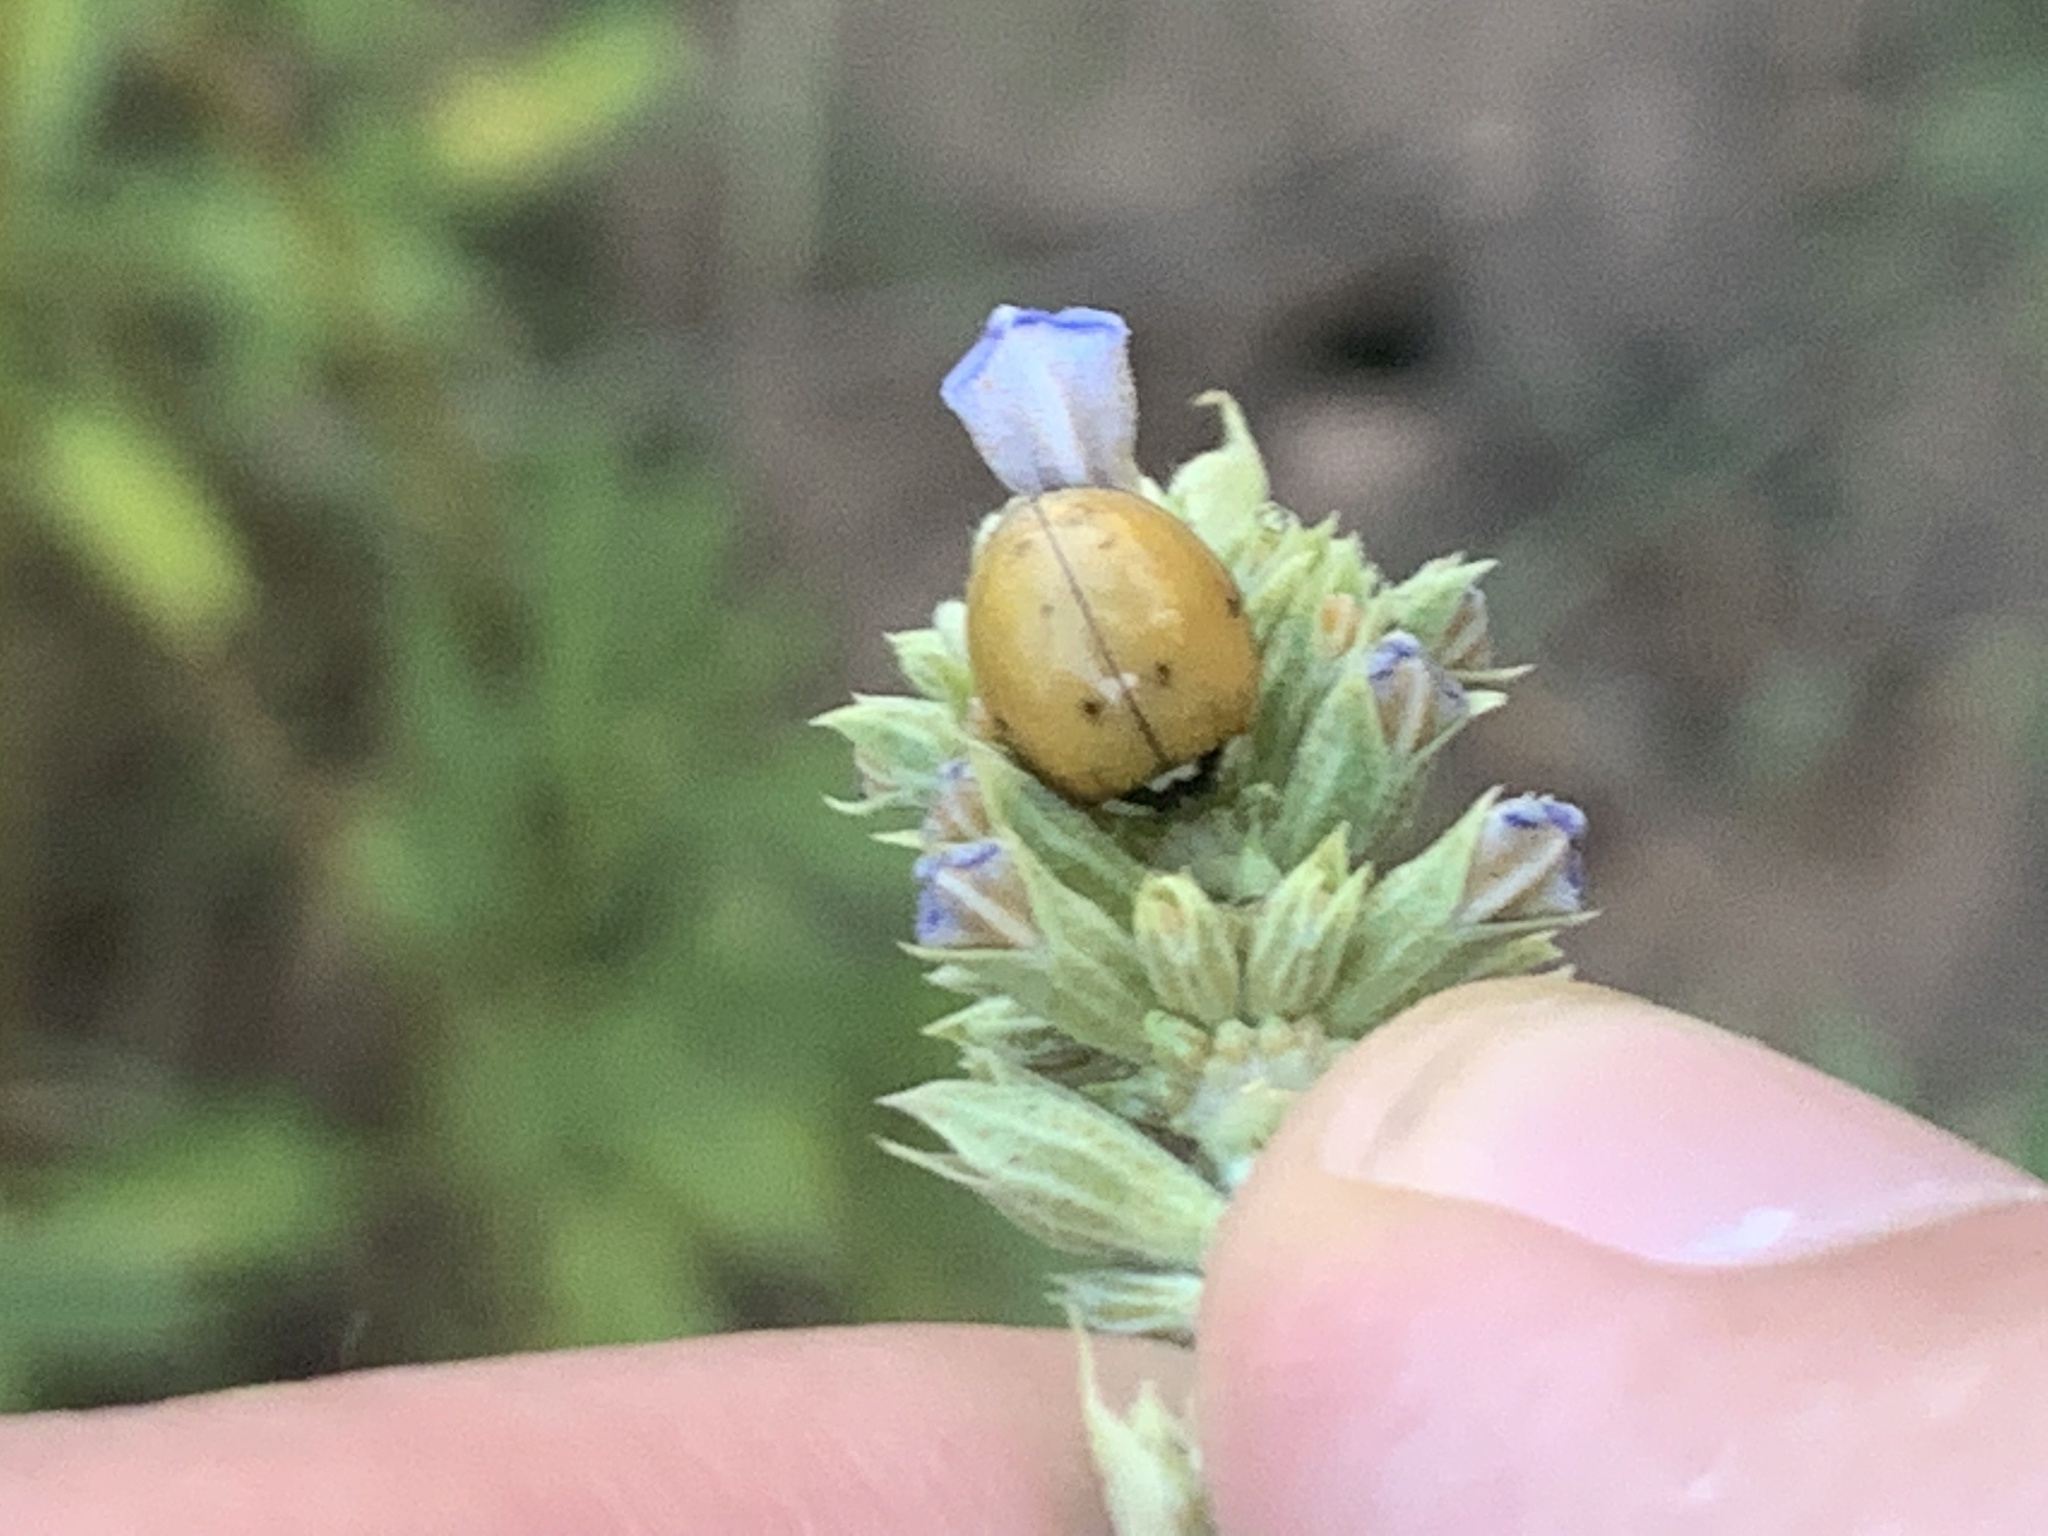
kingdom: Animalia
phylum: Arthropoda
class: Insecta
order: Coleoptera
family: Coccinellidae
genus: Harmonia
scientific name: Harmonia axyridis
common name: Harlequin ladybird
